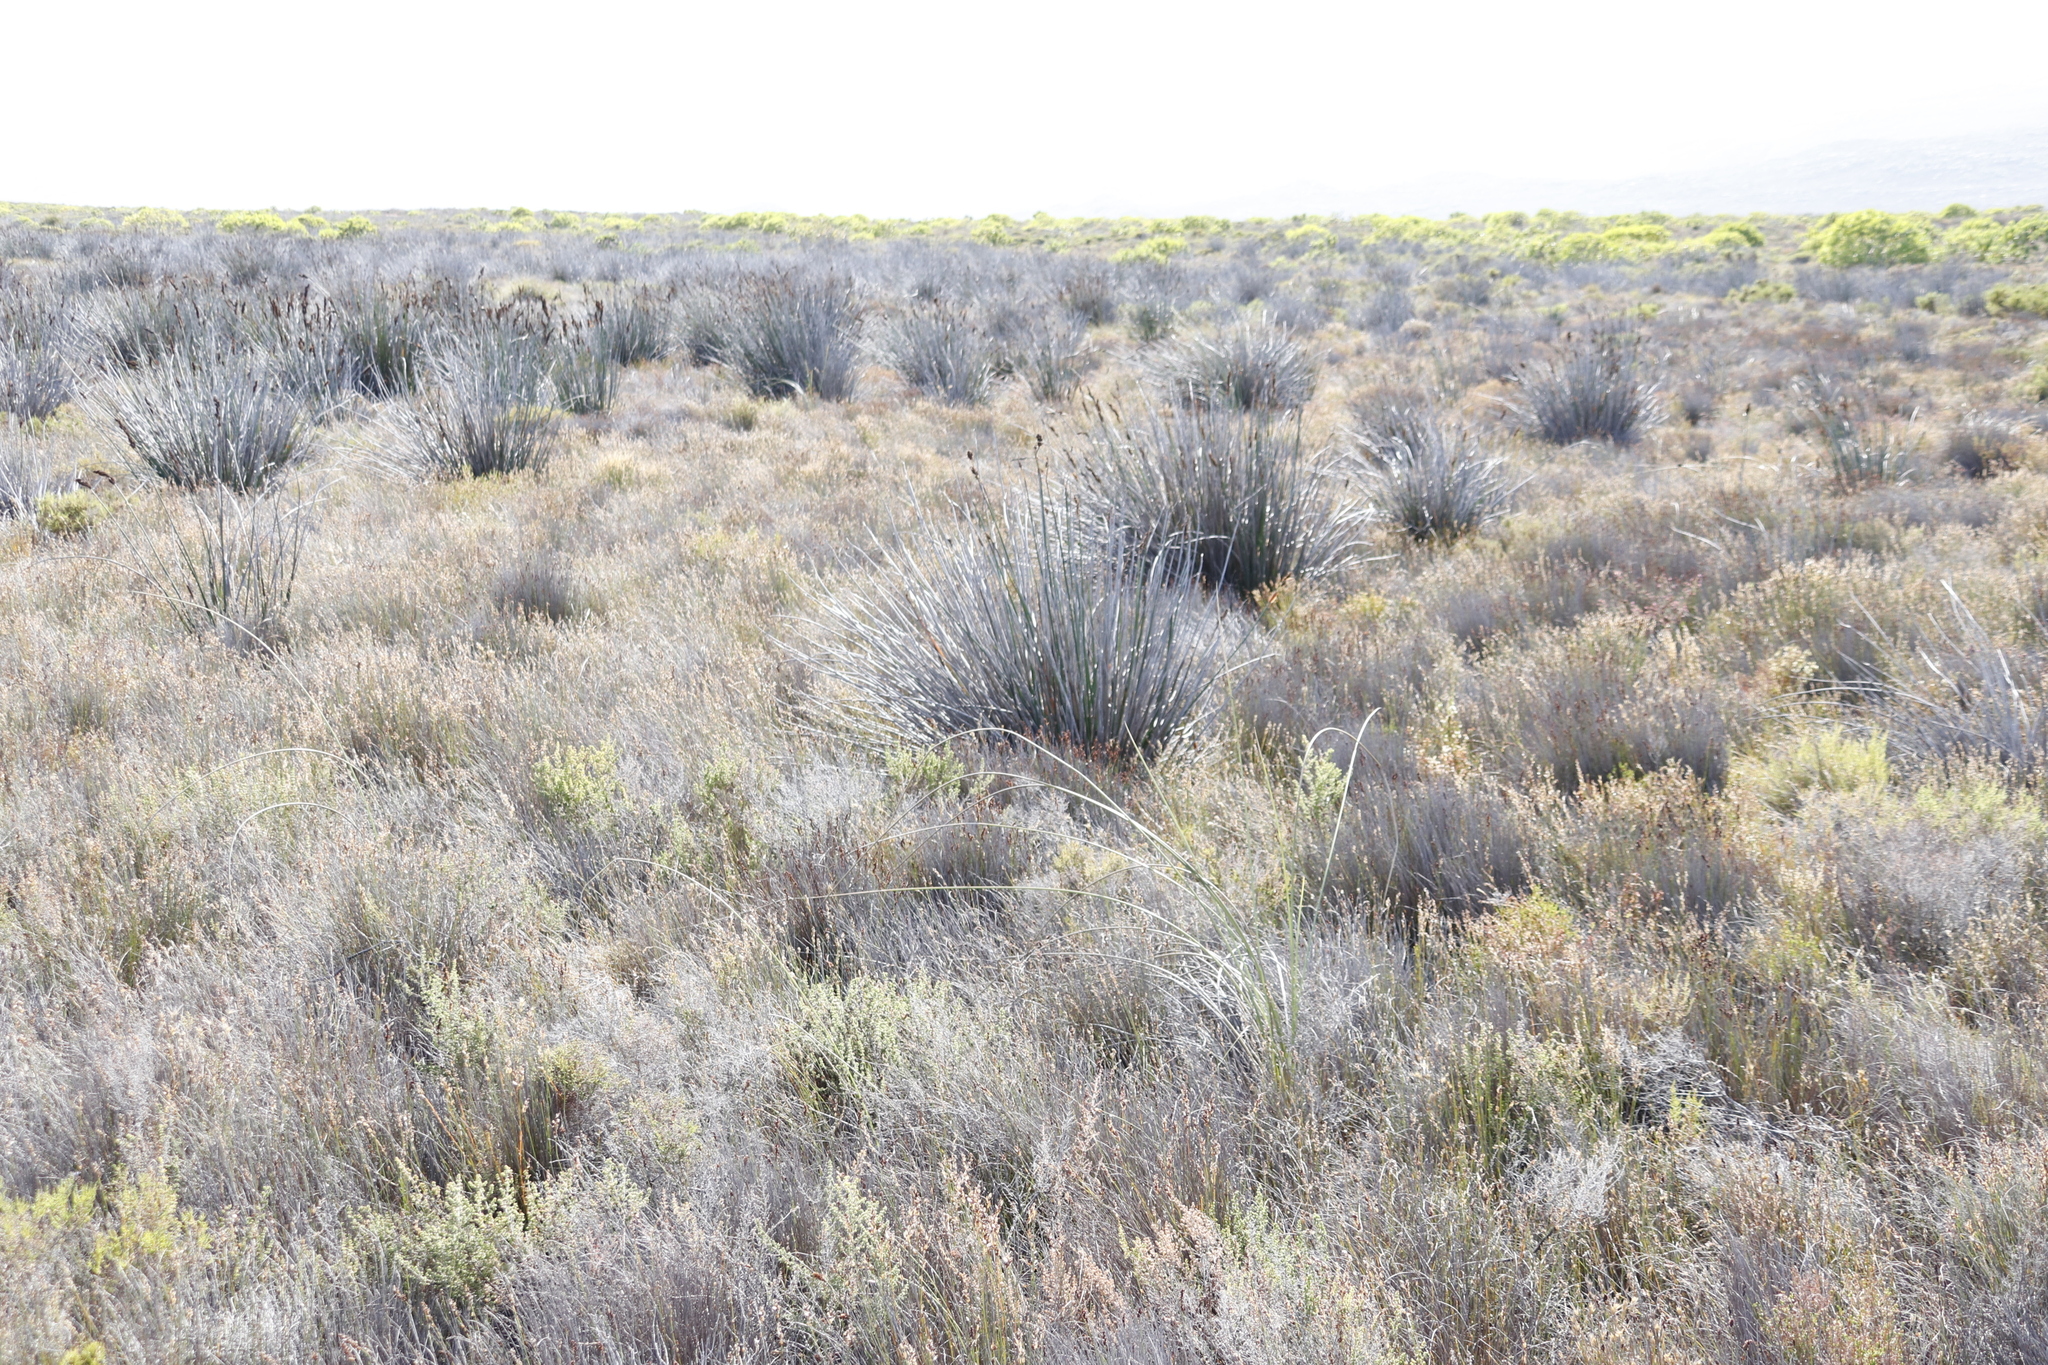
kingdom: Plantae
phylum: Tracheophyta
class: Liliopsida
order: Poales
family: Restionaceae
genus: Elegia
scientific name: Elegia cuspidata
